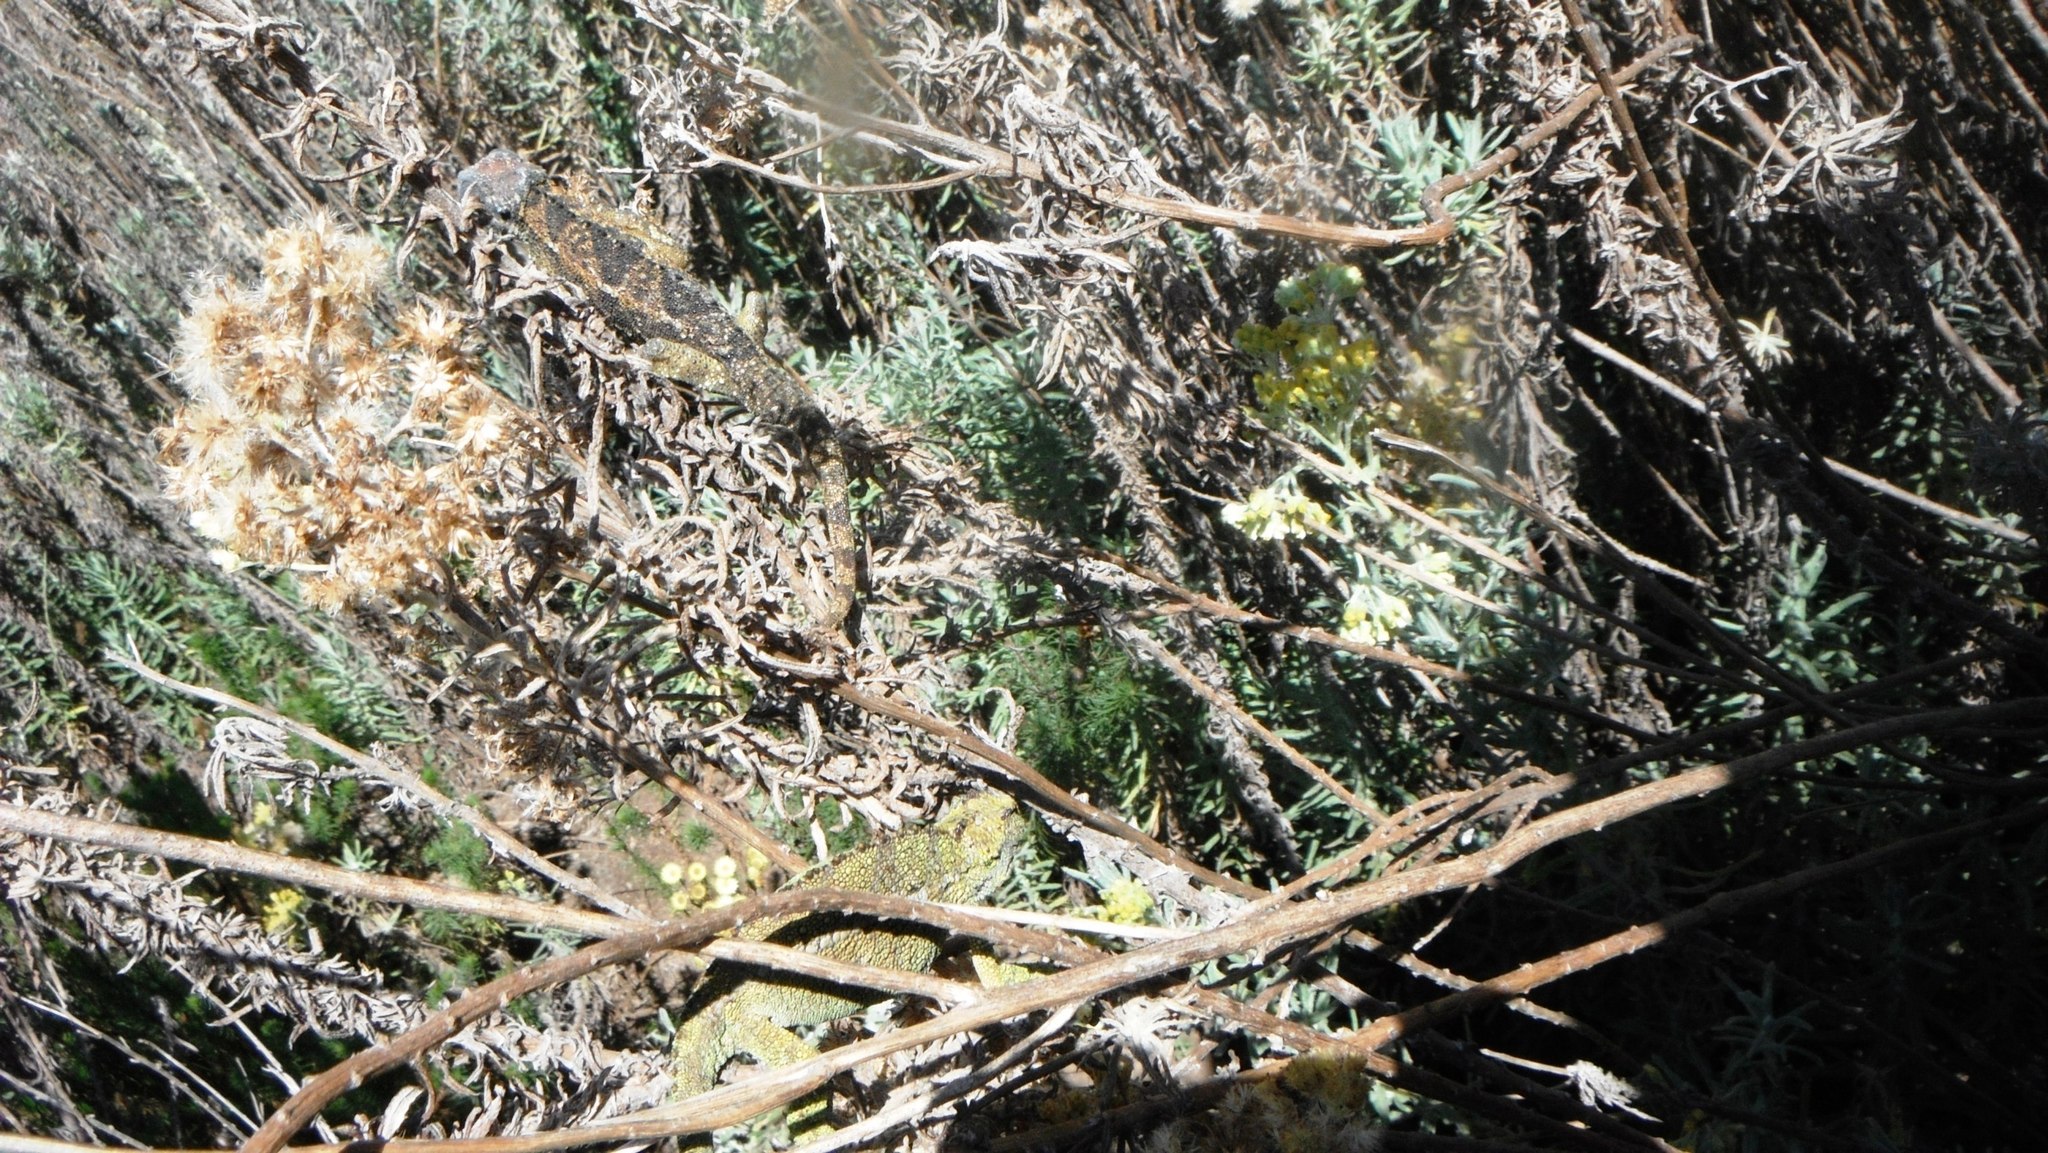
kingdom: Animalia
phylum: Chordata
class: Squamata
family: Chamaeleonidae
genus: Trioceros
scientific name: Trioceros sternfeldi
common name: Tanzanian montane dwarf chameleon
